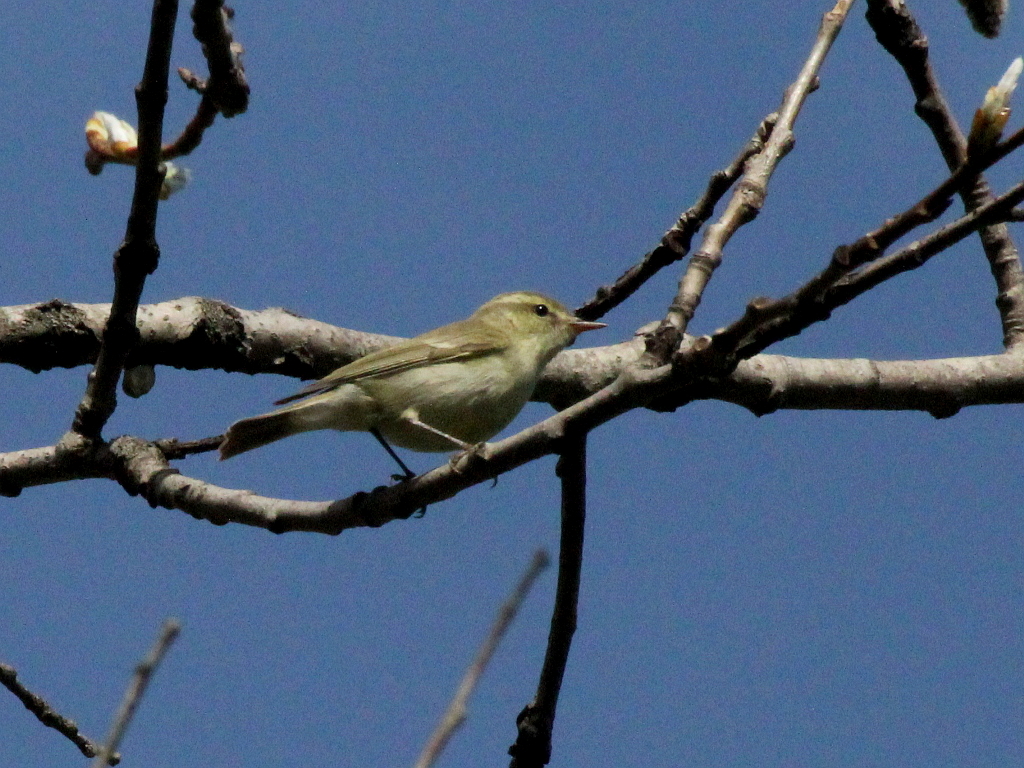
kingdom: Animalia
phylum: Chordata
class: Aves
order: Passeriformes
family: Phylloscopidae
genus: Phylloscopus
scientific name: Phylloscopus trochiloides
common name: Greenish warbler
